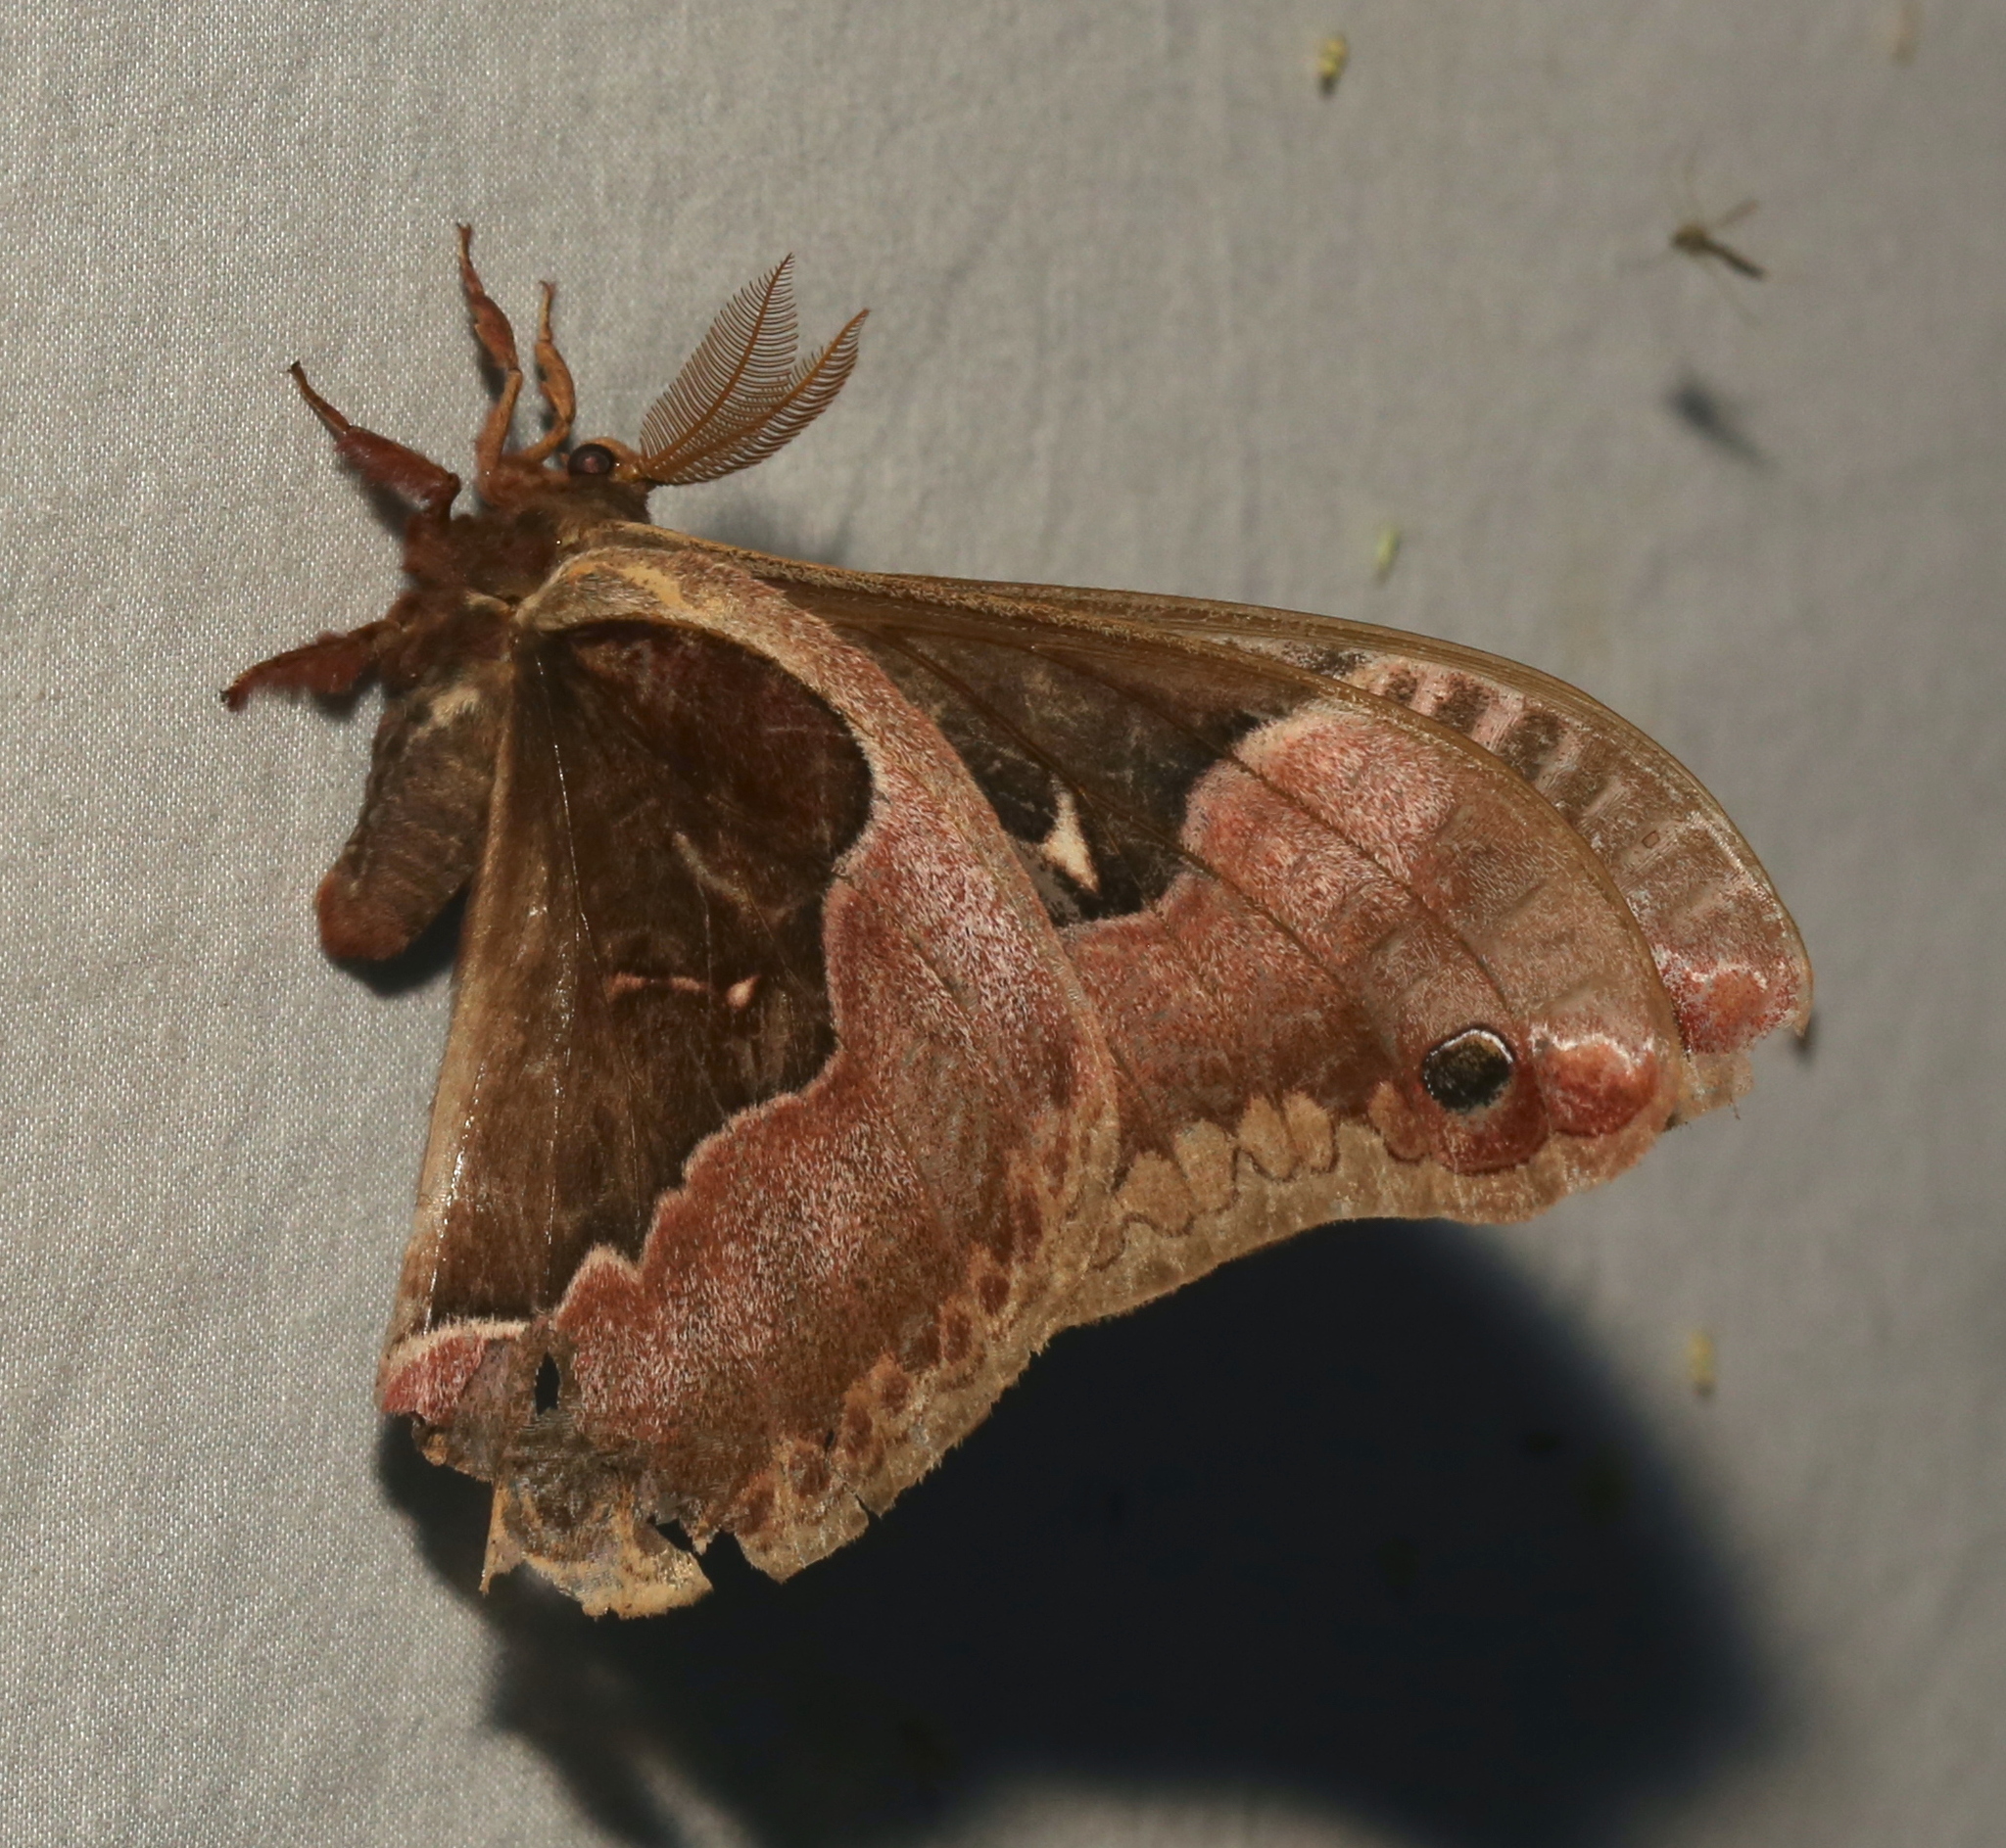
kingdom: Animalia
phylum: Arthropoda
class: Insecta
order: Lepidoptera
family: Saturniidae
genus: Callosamia
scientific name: Callosamia angulifera
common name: Tulip tree silkmoth
